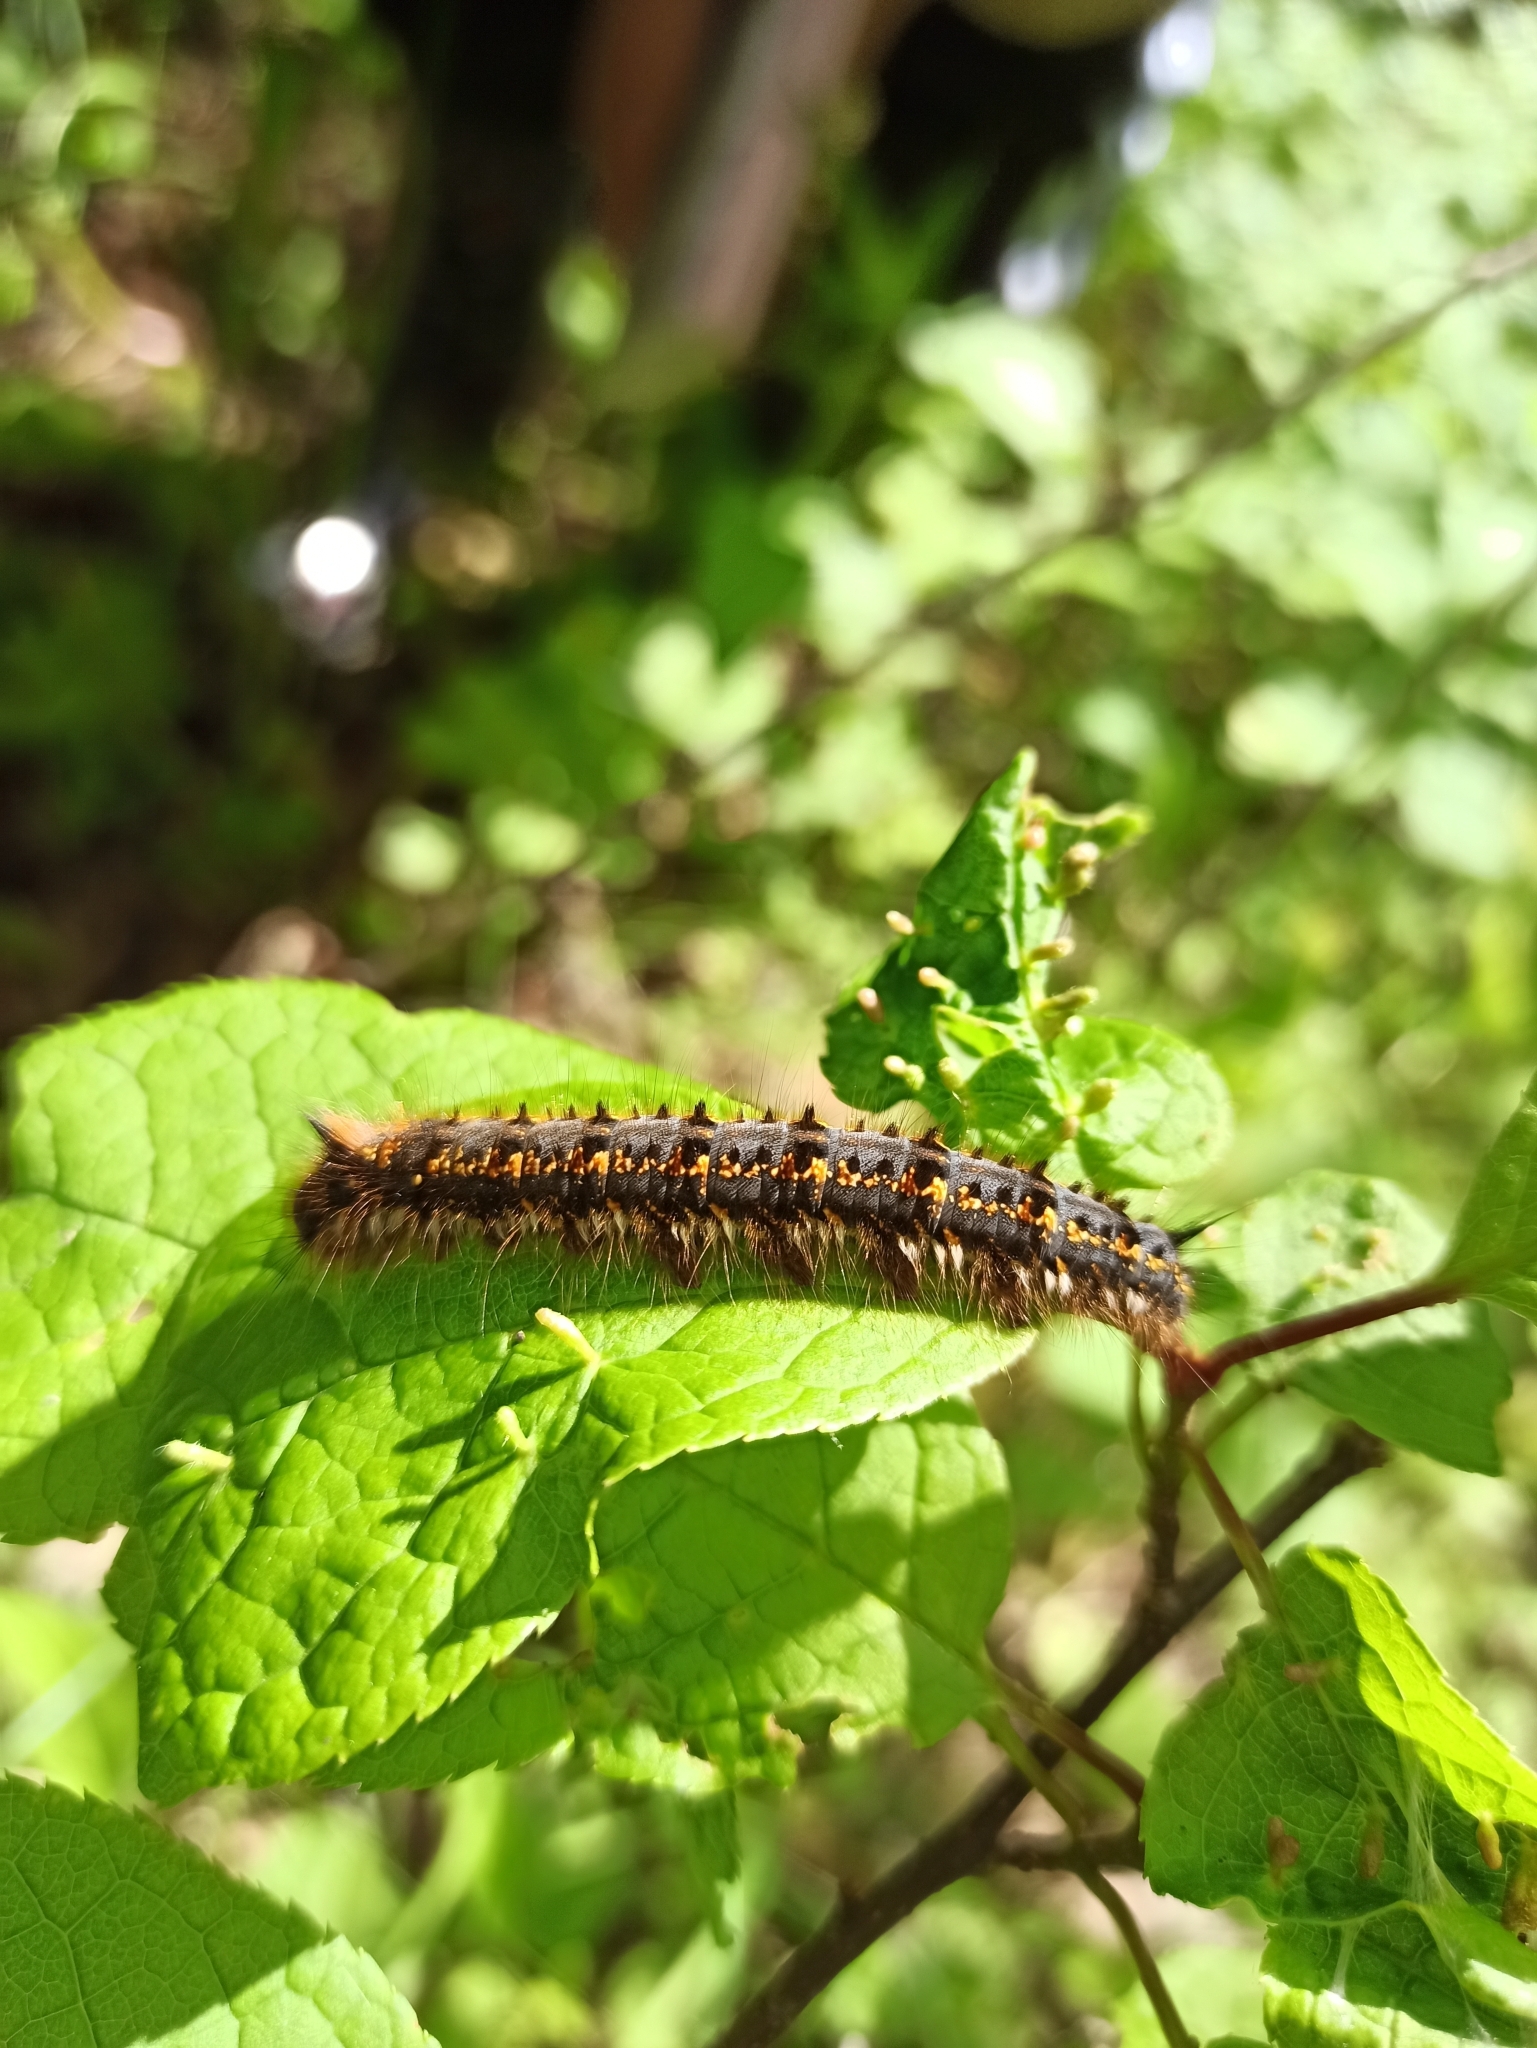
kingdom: Animalia
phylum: Arthropoda
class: Insecta
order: Lepidoptera
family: Lasiocampidae
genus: Euthrix
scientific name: Euthrix potatoria
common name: Drinker
